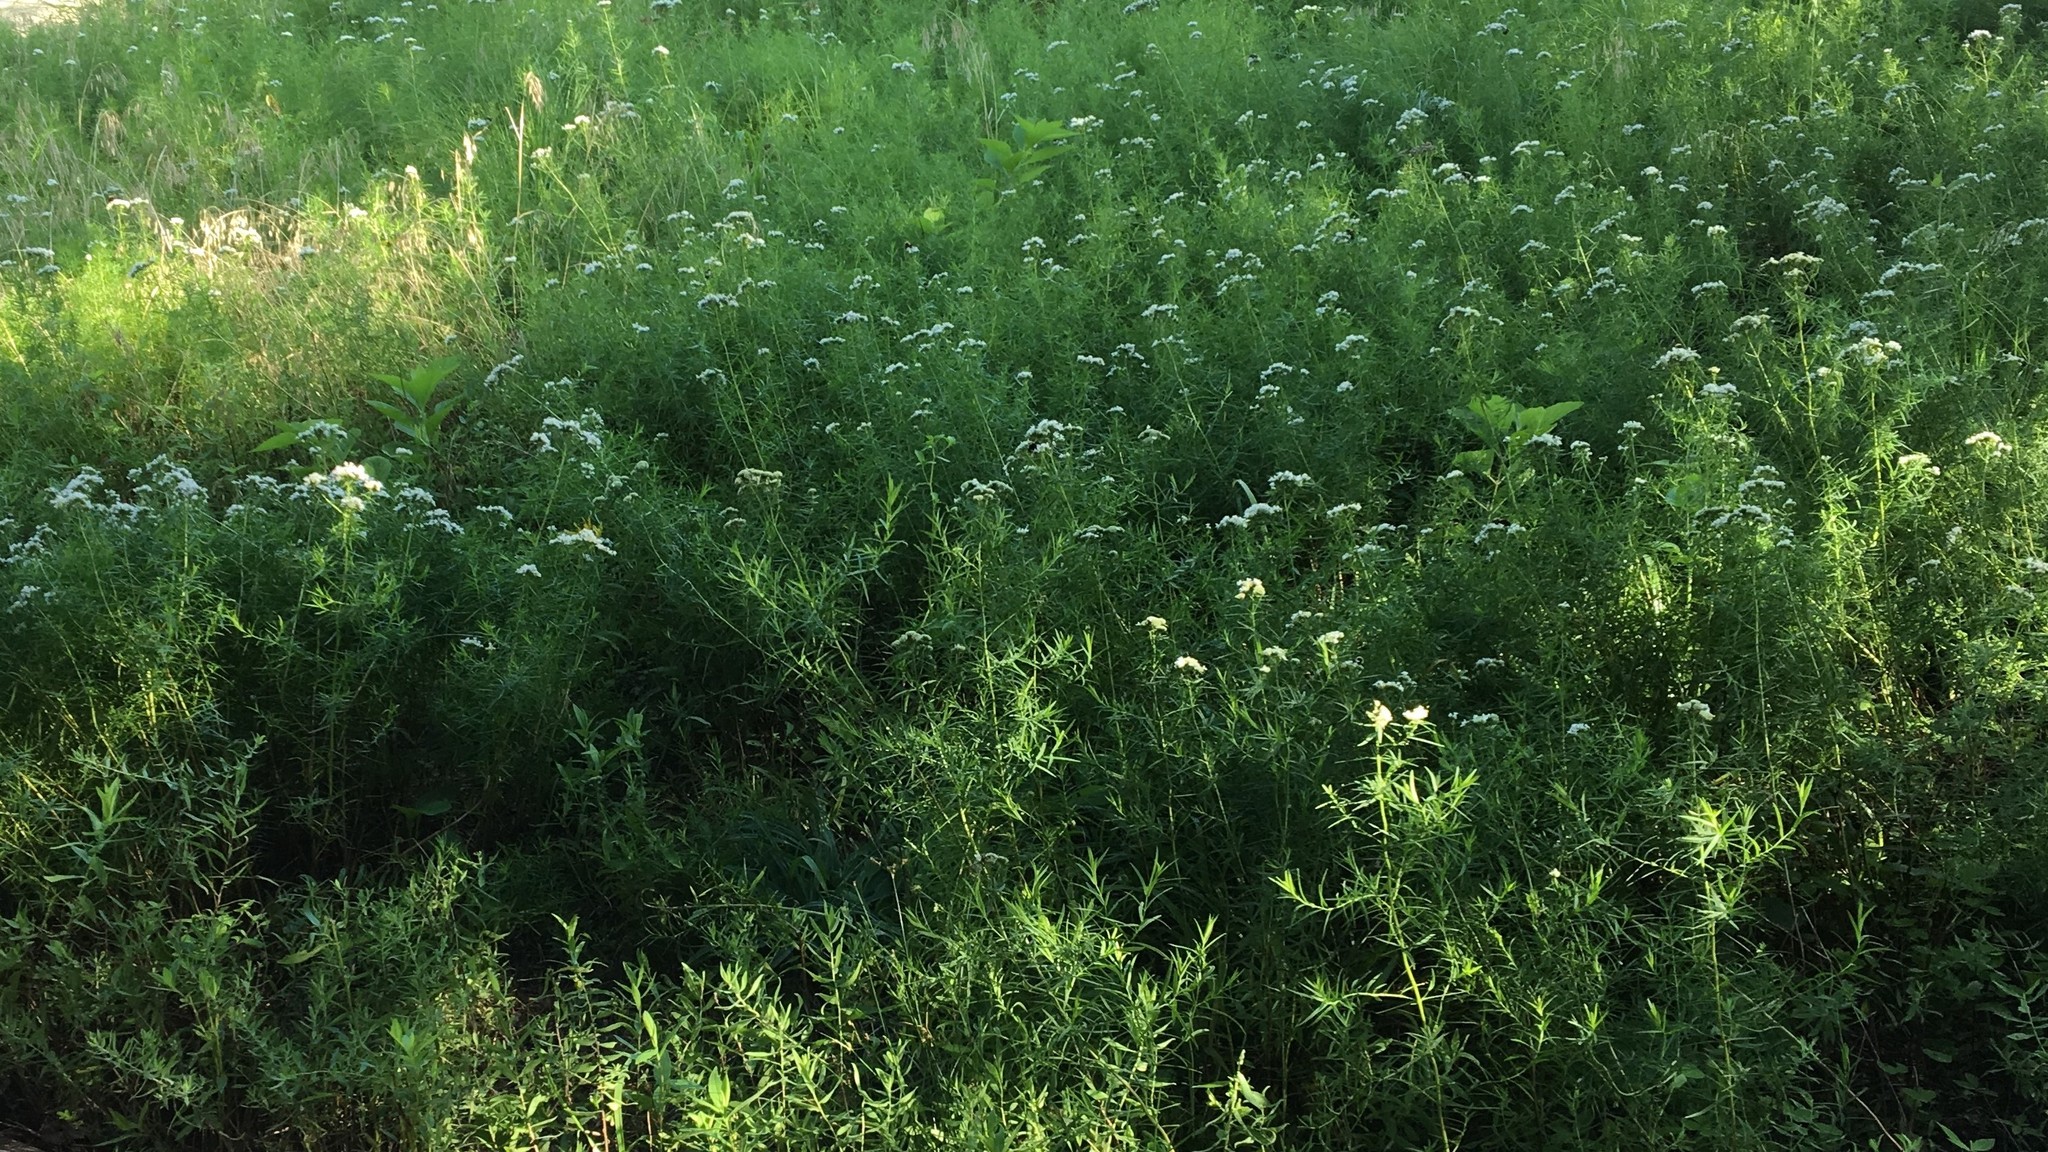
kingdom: Plantae
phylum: Tracheophyta
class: Magnoliopsida
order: Lamiales
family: Lamiaceae
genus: Pycnanthemum
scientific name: Pycnanthemum tenuifolium
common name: Narrow-leaf mountain-mint
